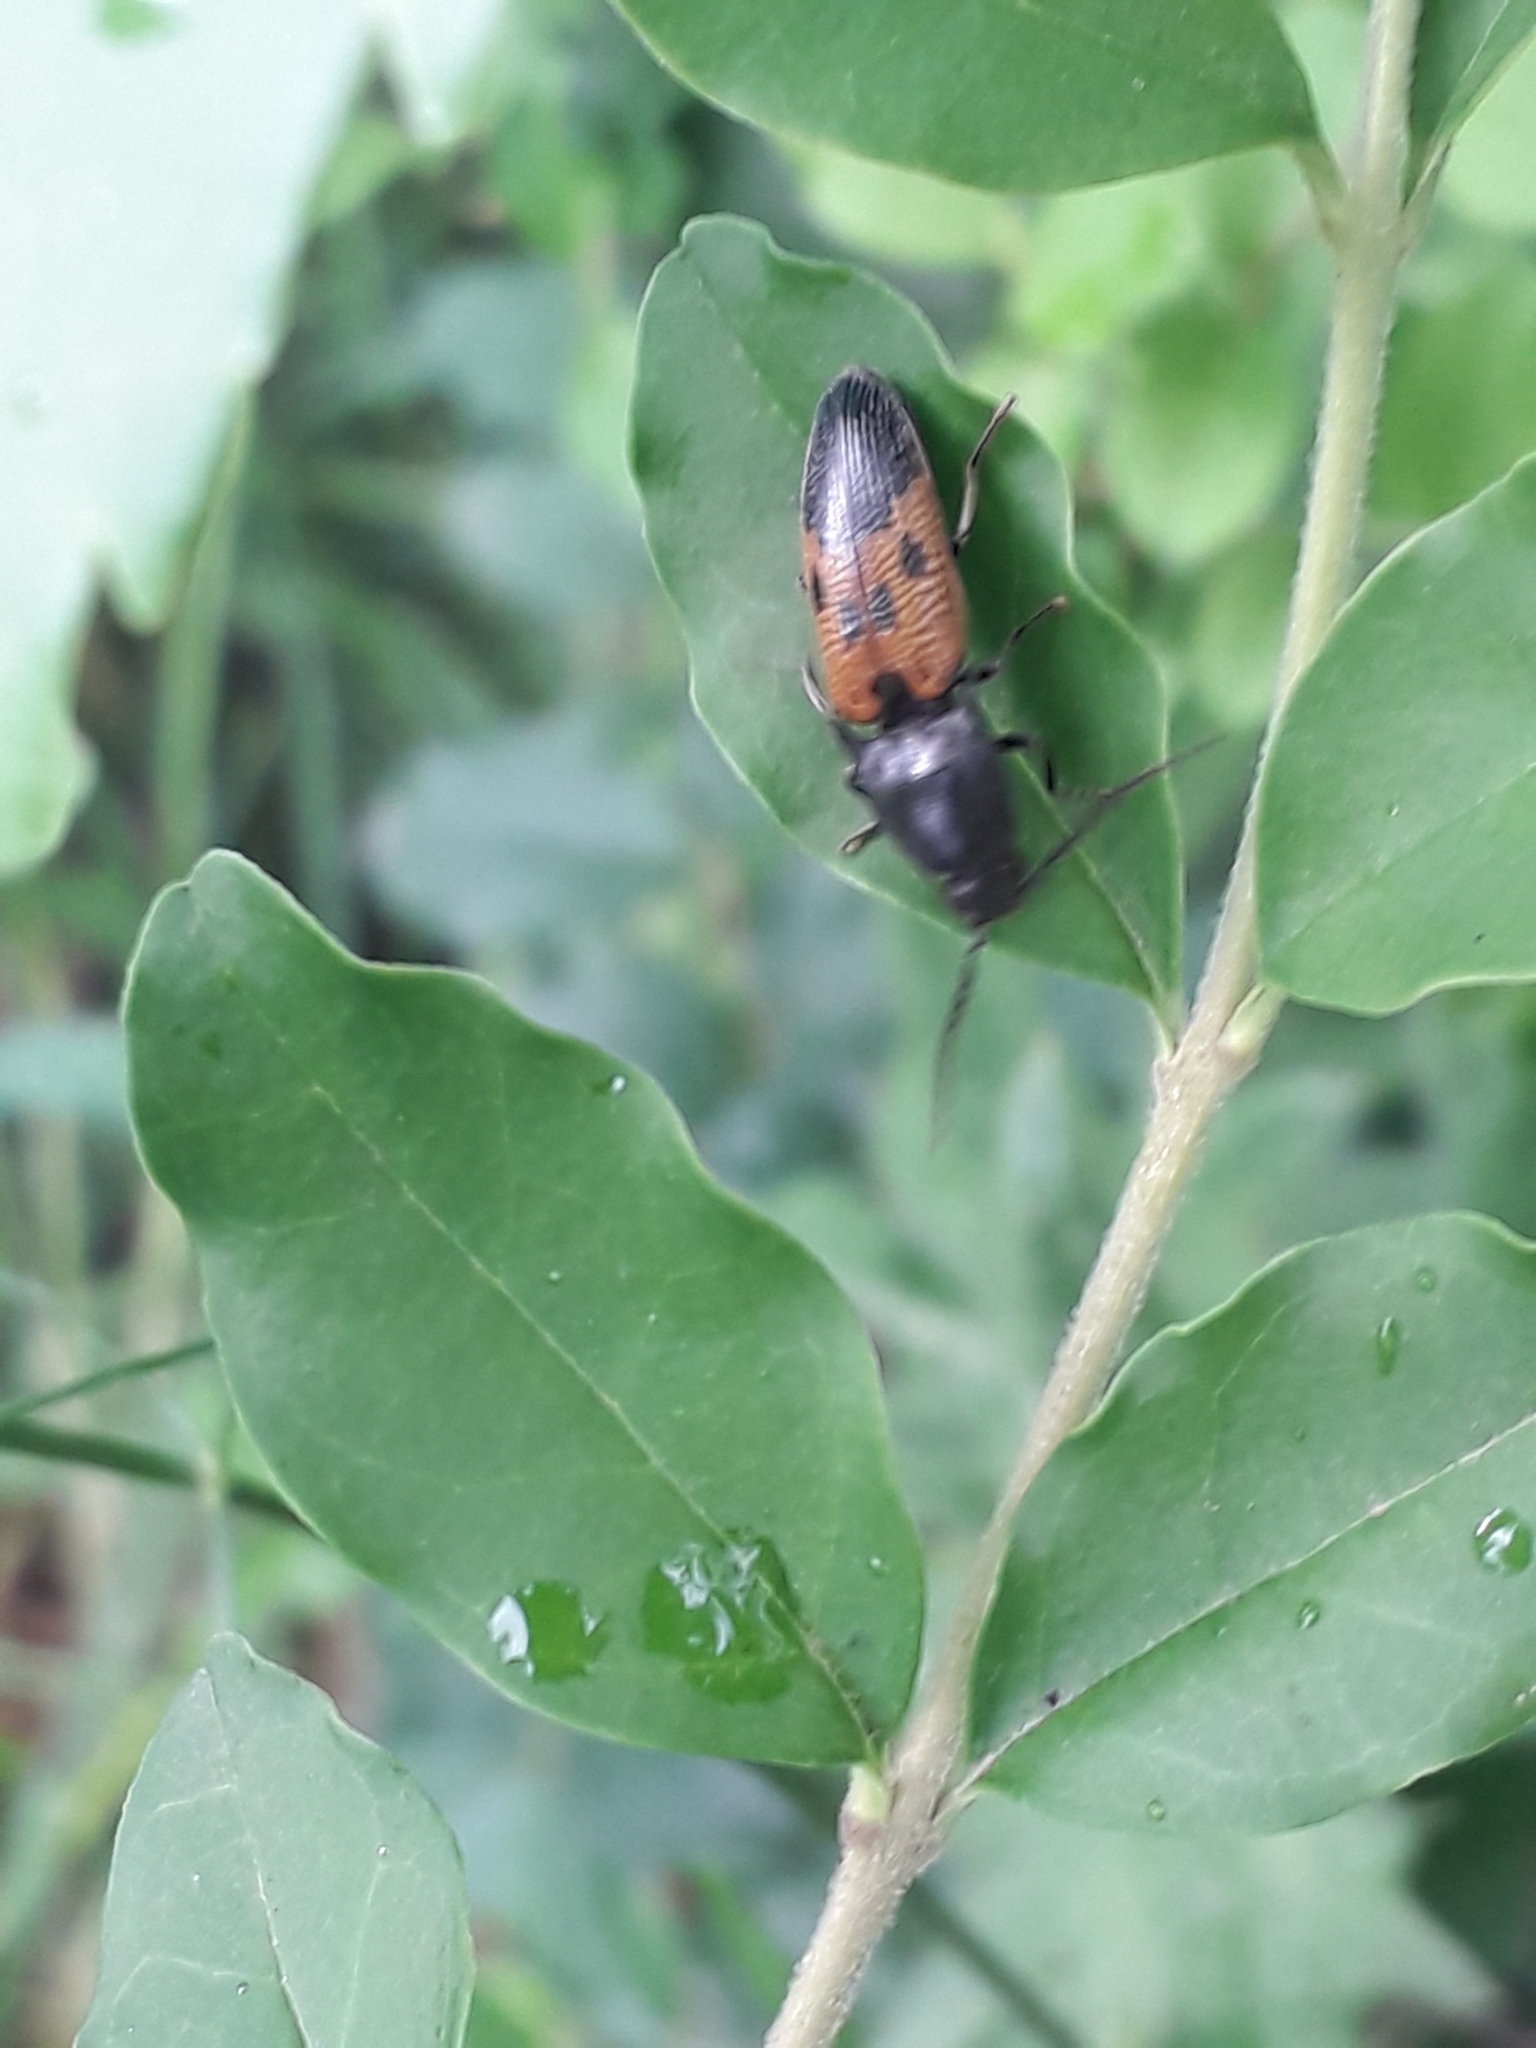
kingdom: Animalia
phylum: Arthropoda
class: Insecta
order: Coleoptera
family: Elateridae
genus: Monocrepidius
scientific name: Monocrepidius
